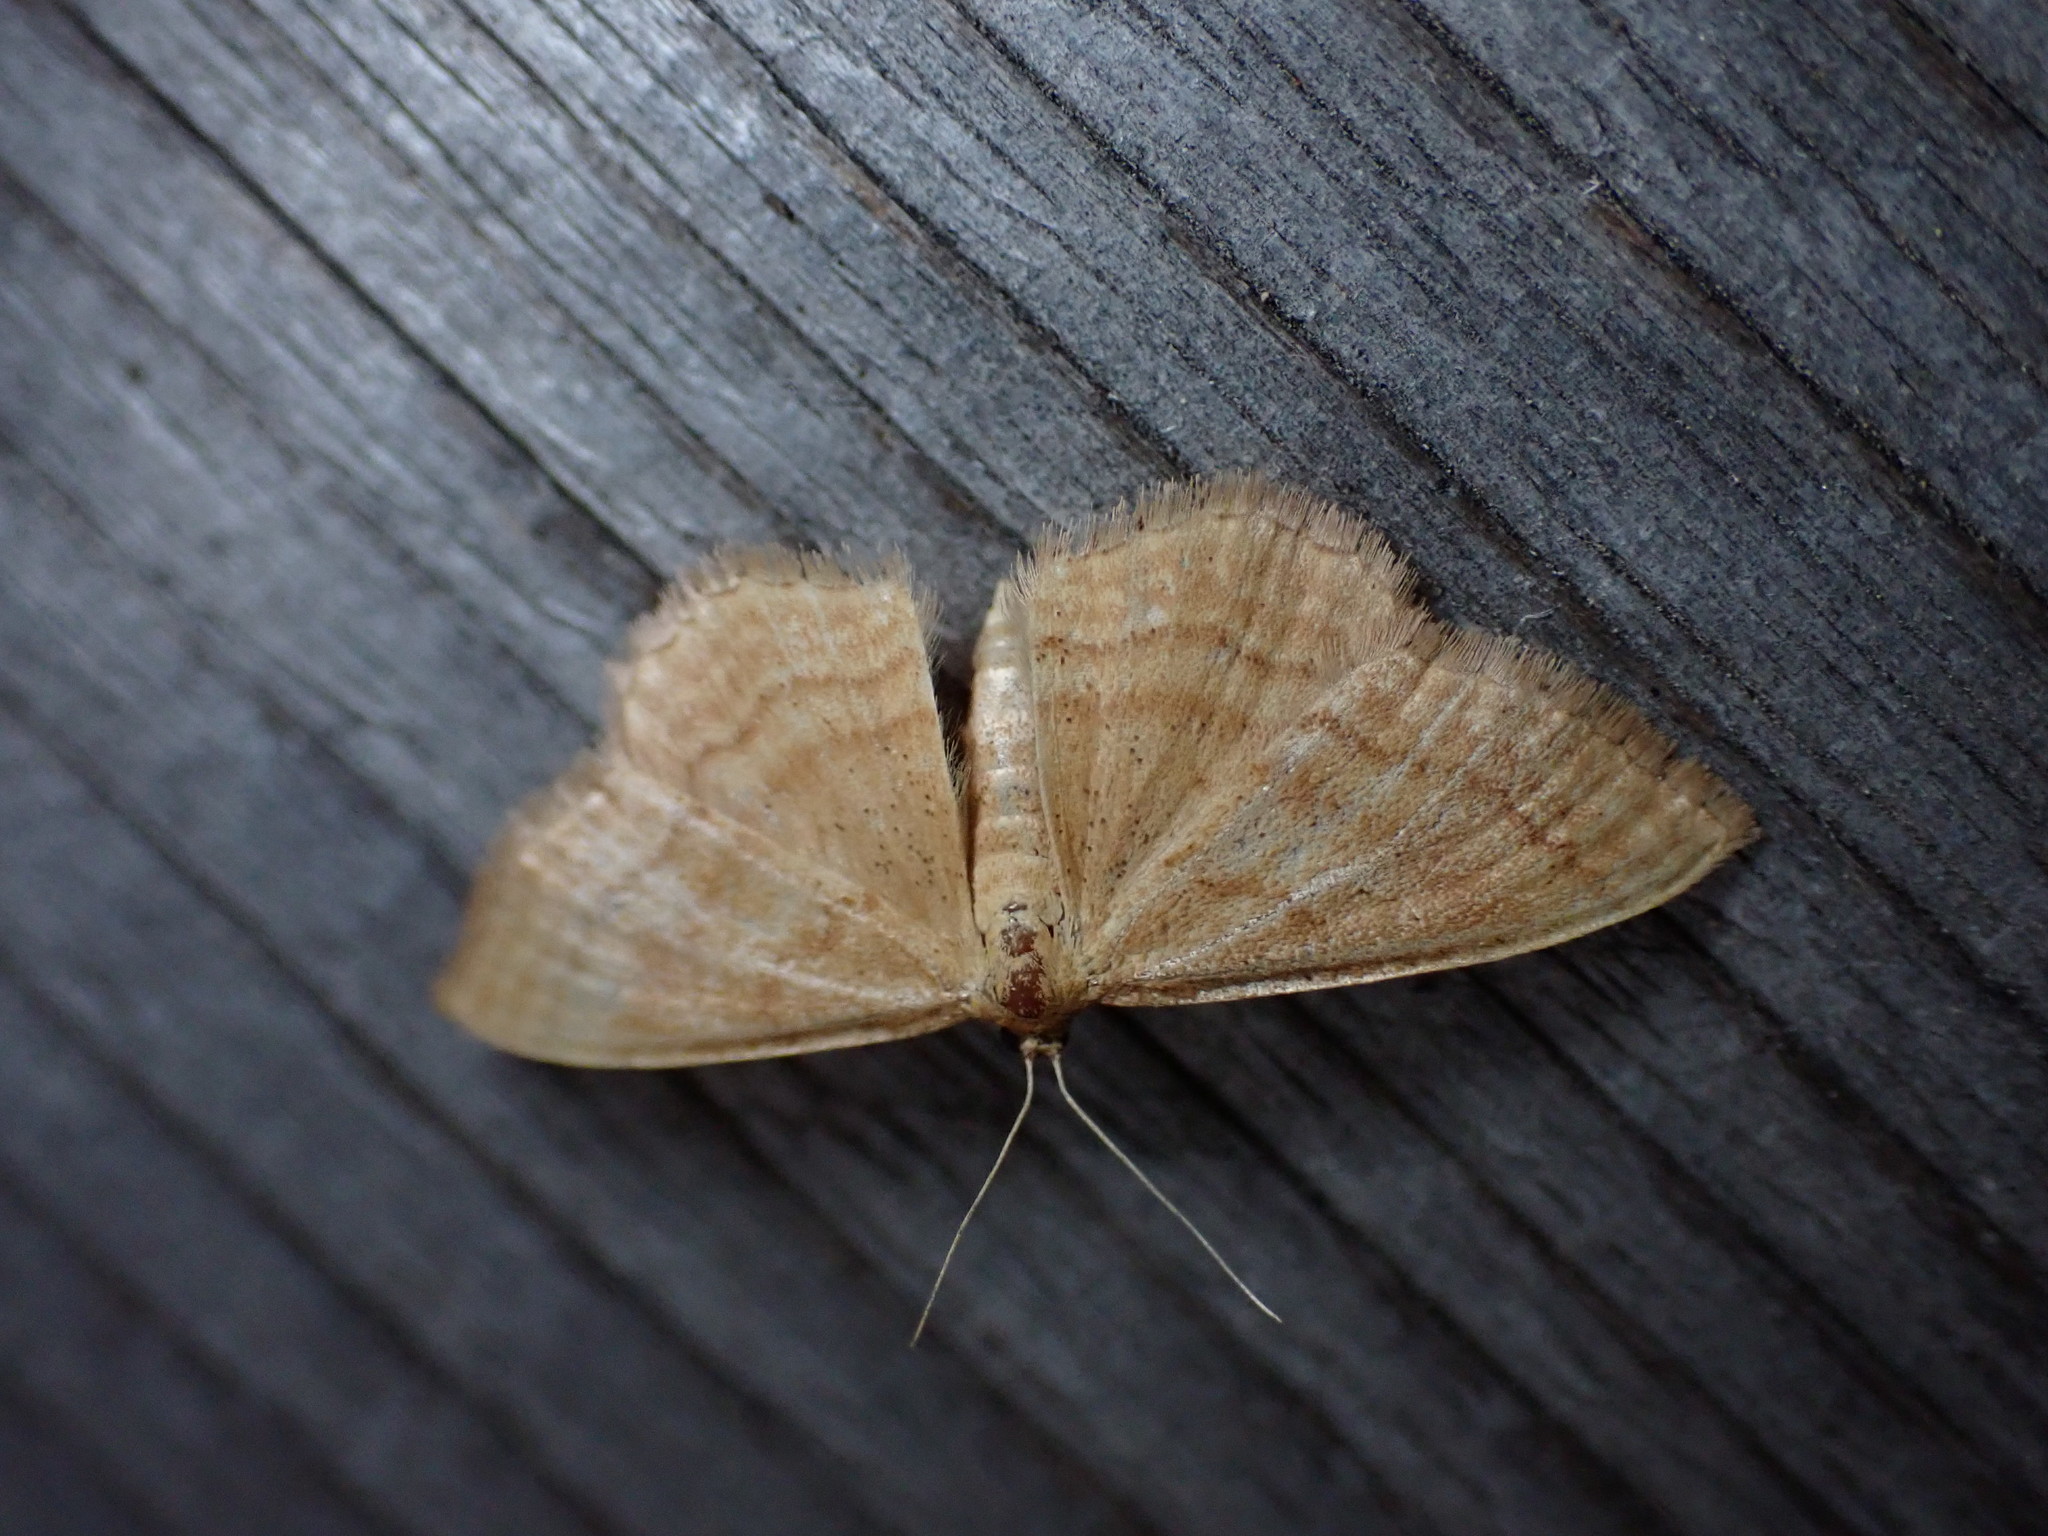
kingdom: Animalia
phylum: Arthropoda
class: Insecta
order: Lepidoptera
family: Geometridae
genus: Idaea
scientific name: Idaea ochrata
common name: Bright wave
